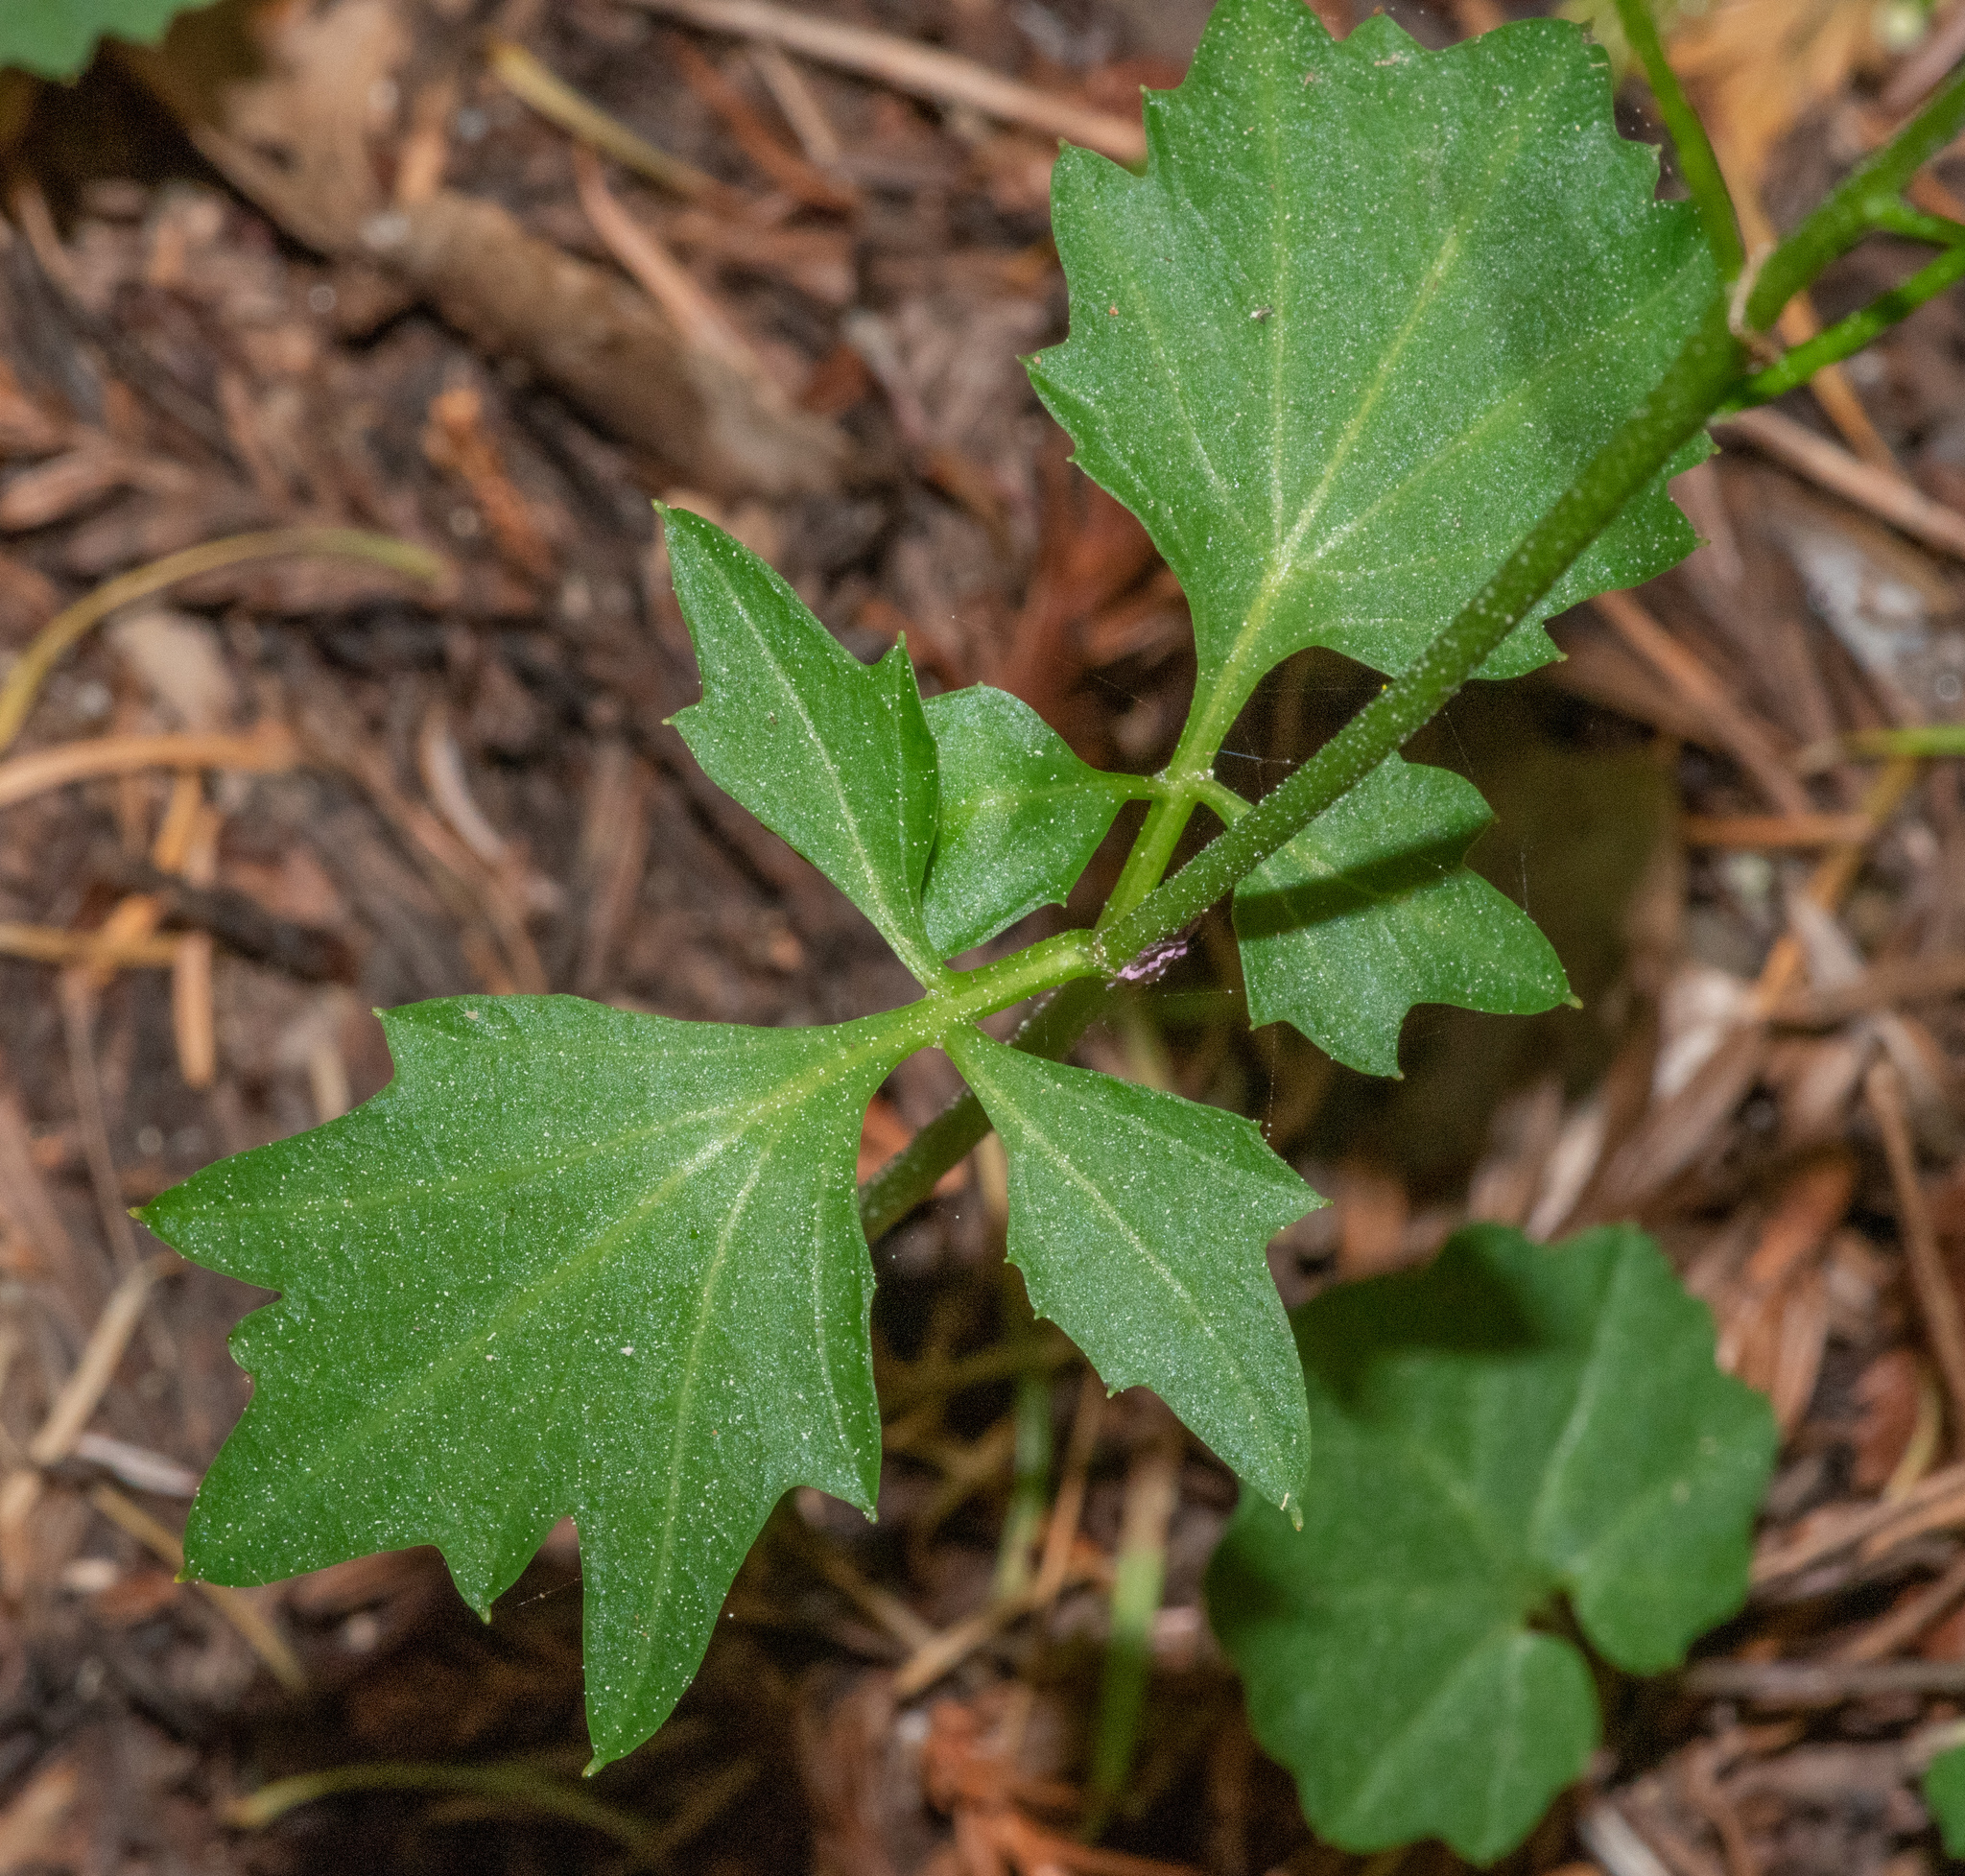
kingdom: Plantae
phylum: Tracheophyta
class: Magnoliopsida
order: Brassicales
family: Brassicaceae
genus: Cardamine
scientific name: Cardamine californica
